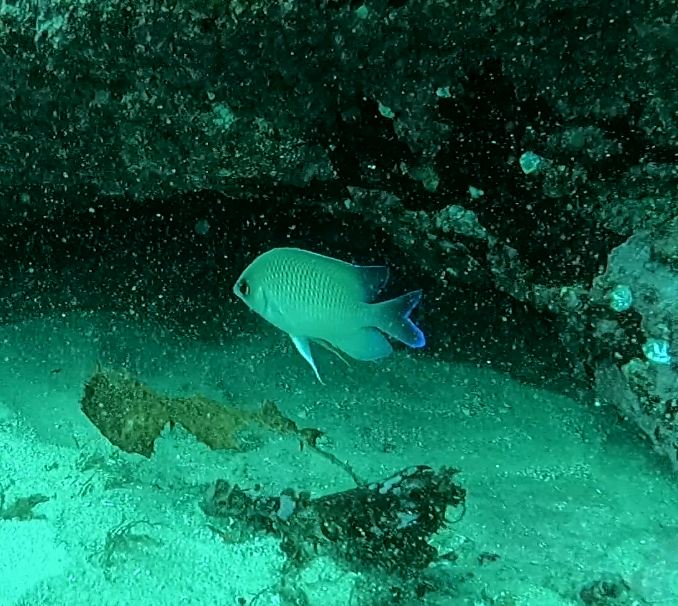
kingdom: Animalia
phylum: Chordata
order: Perciformes
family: Pomacentridae
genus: Mecaenichthys
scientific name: Mecaenichthys immaculatus
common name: Immaculate damsel
